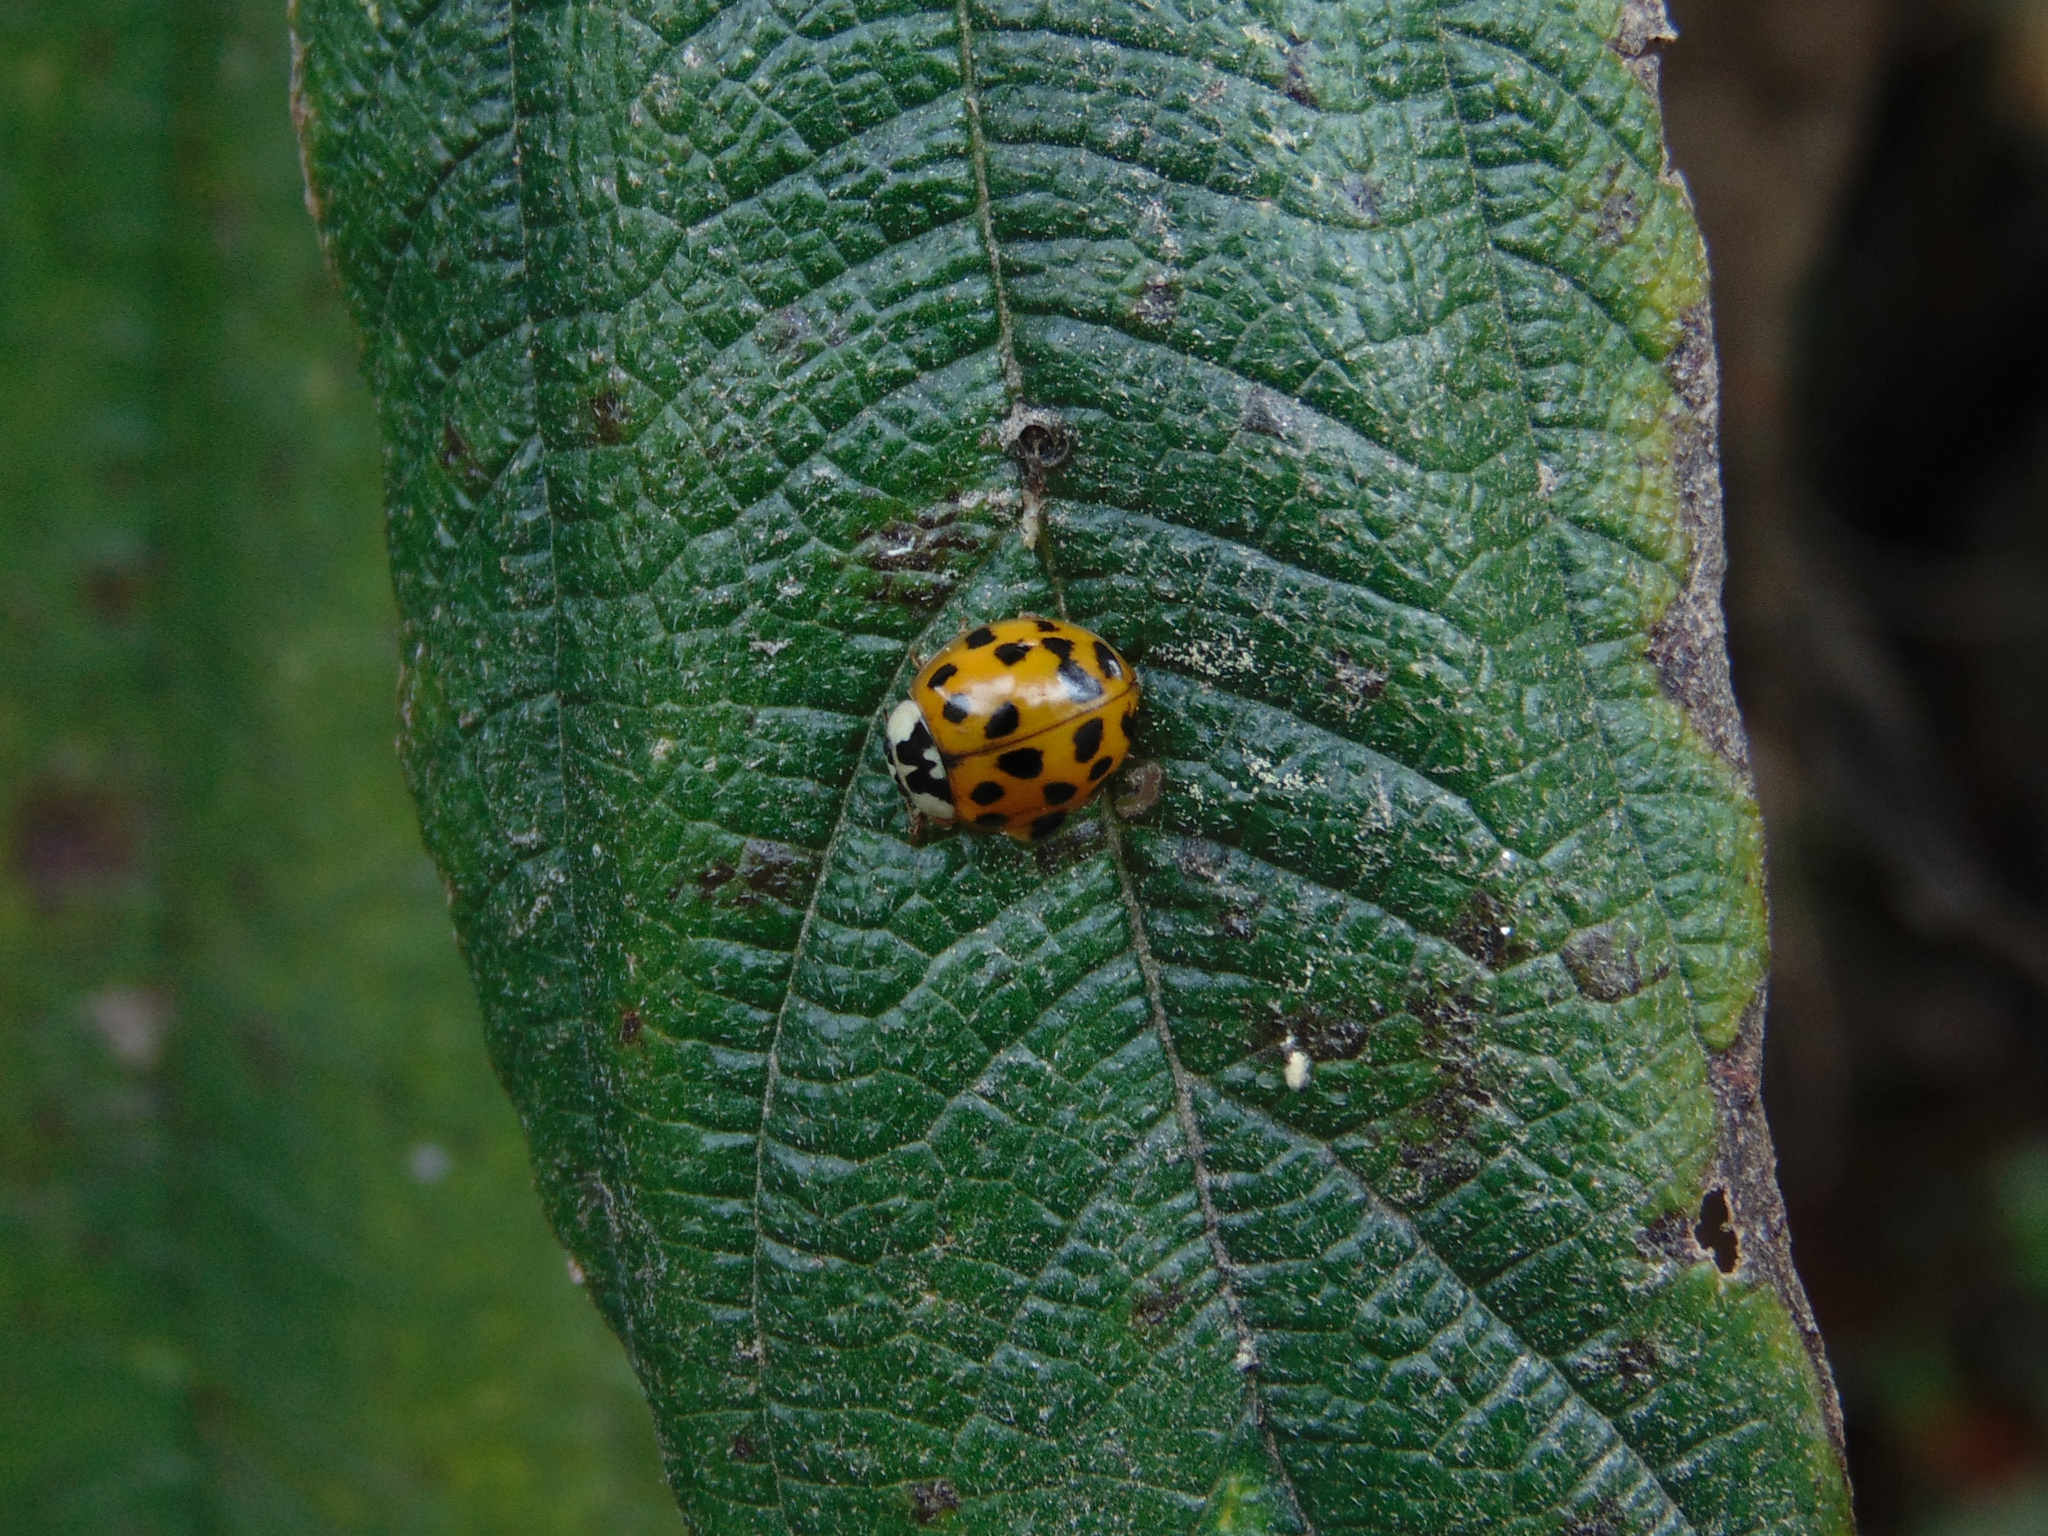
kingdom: Animalia
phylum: Arthropoda
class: Insecta
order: Coleoptera
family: Coccinellidae
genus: Harmonia
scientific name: Harmonia axyridis
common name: Harlequin ladybird
